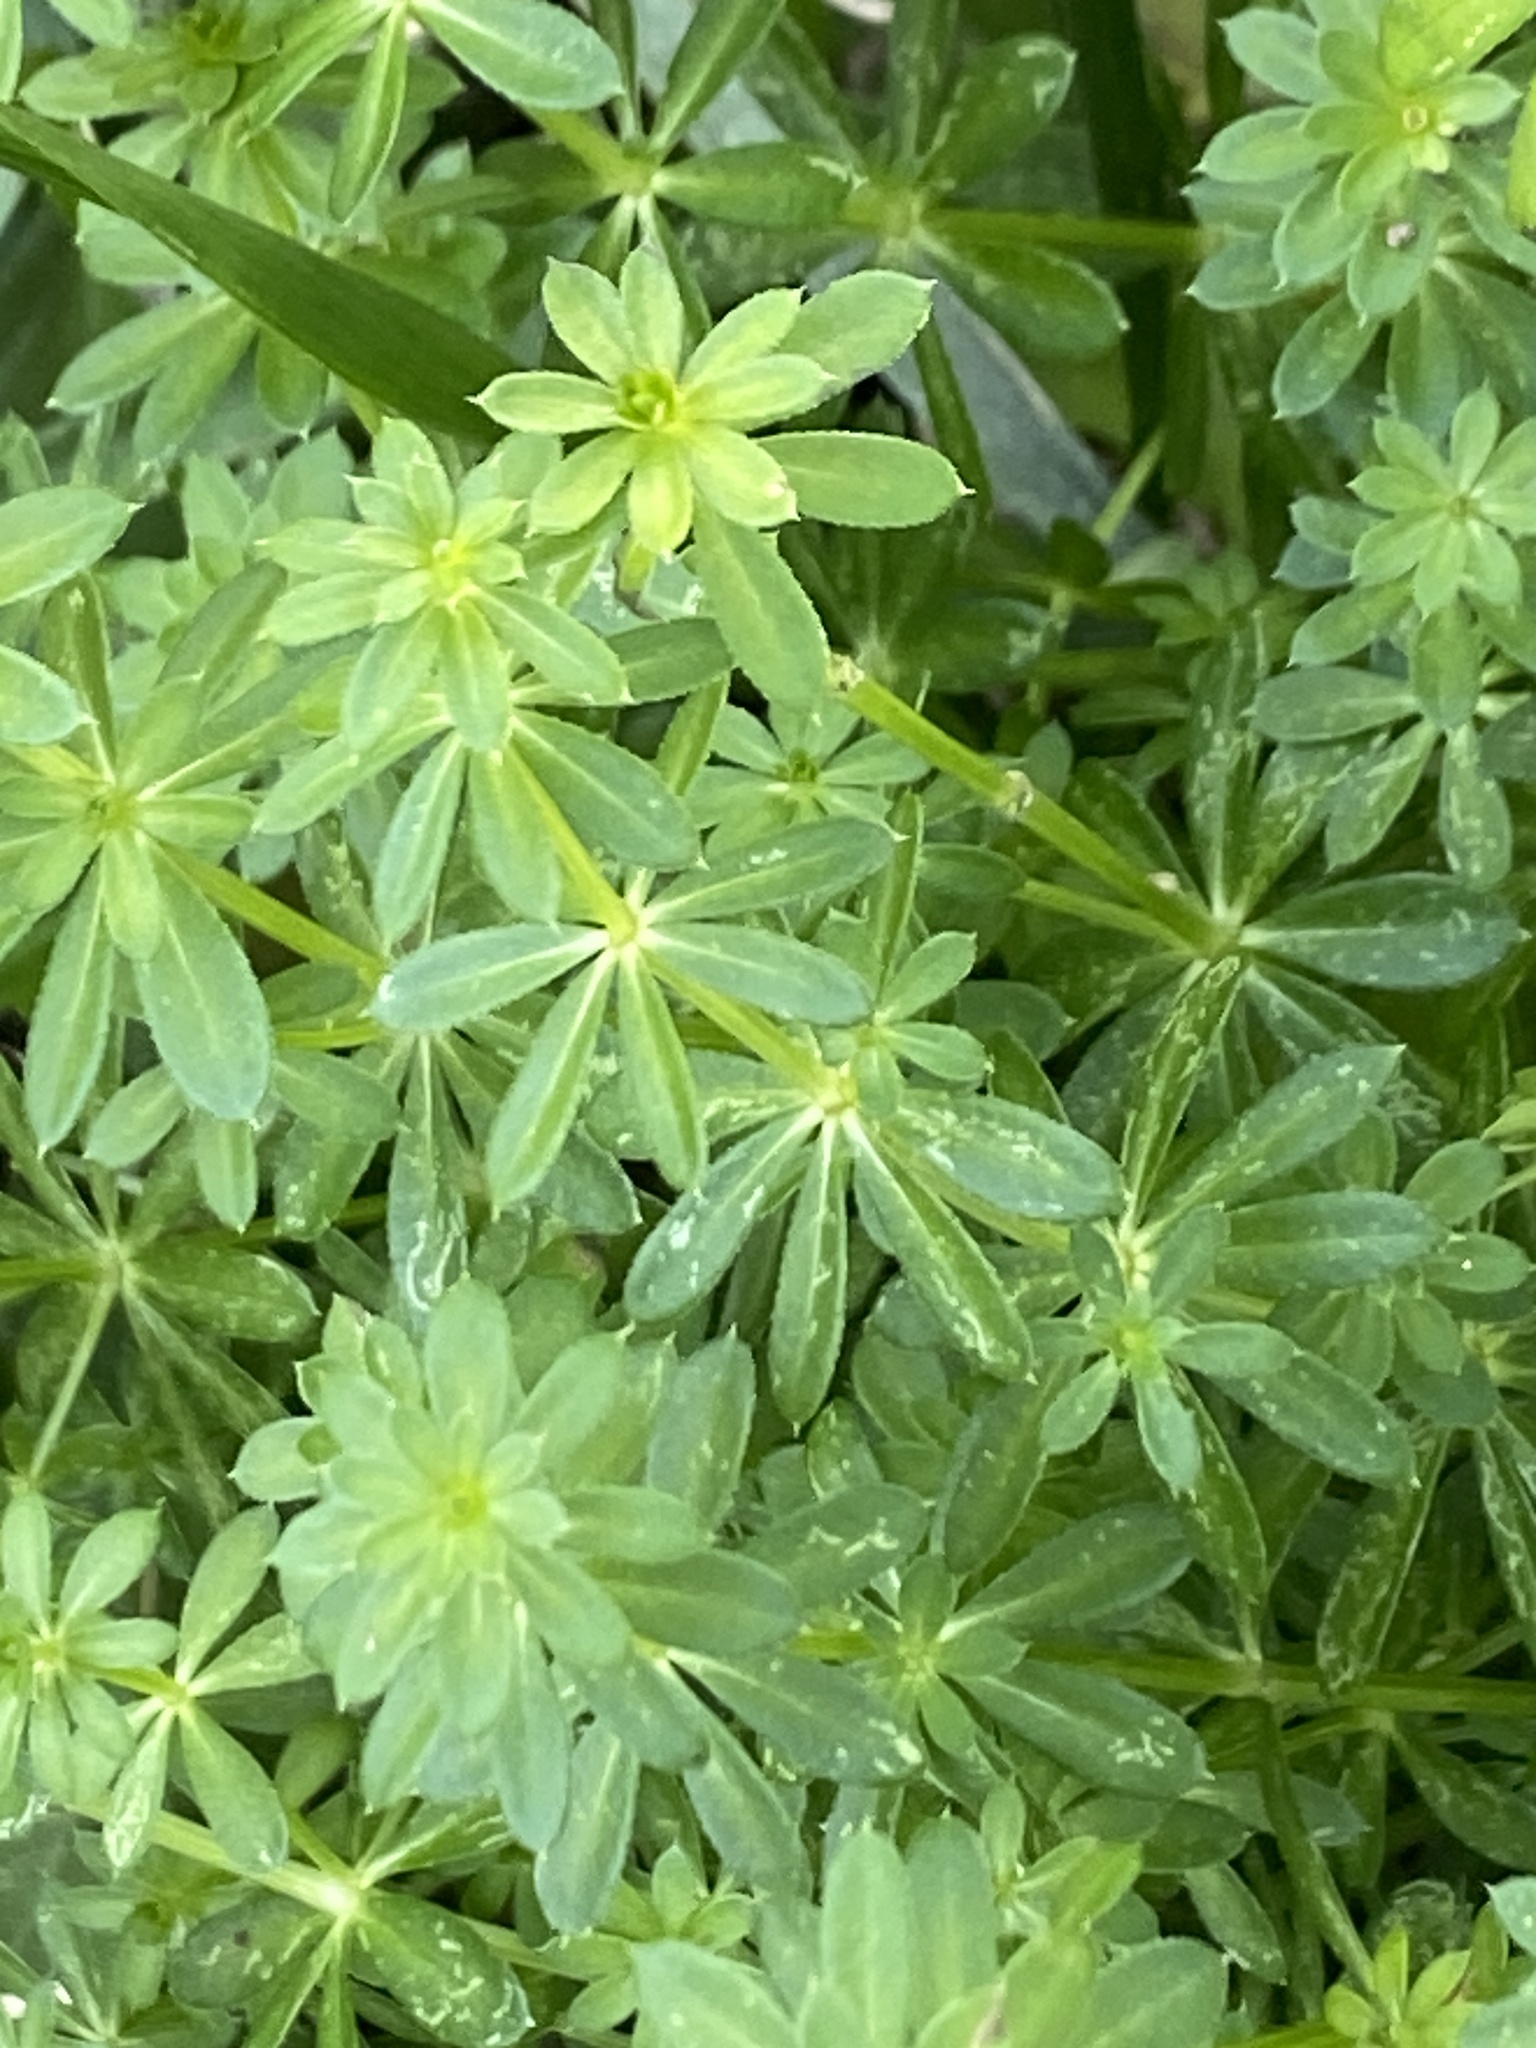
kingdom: Plantae
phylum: Tracheophyta
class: Magnoliopsida
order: Gentianales
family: Rubiaceae
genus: Galium
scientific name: Galium mollugo
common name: Hedge bedstraw
